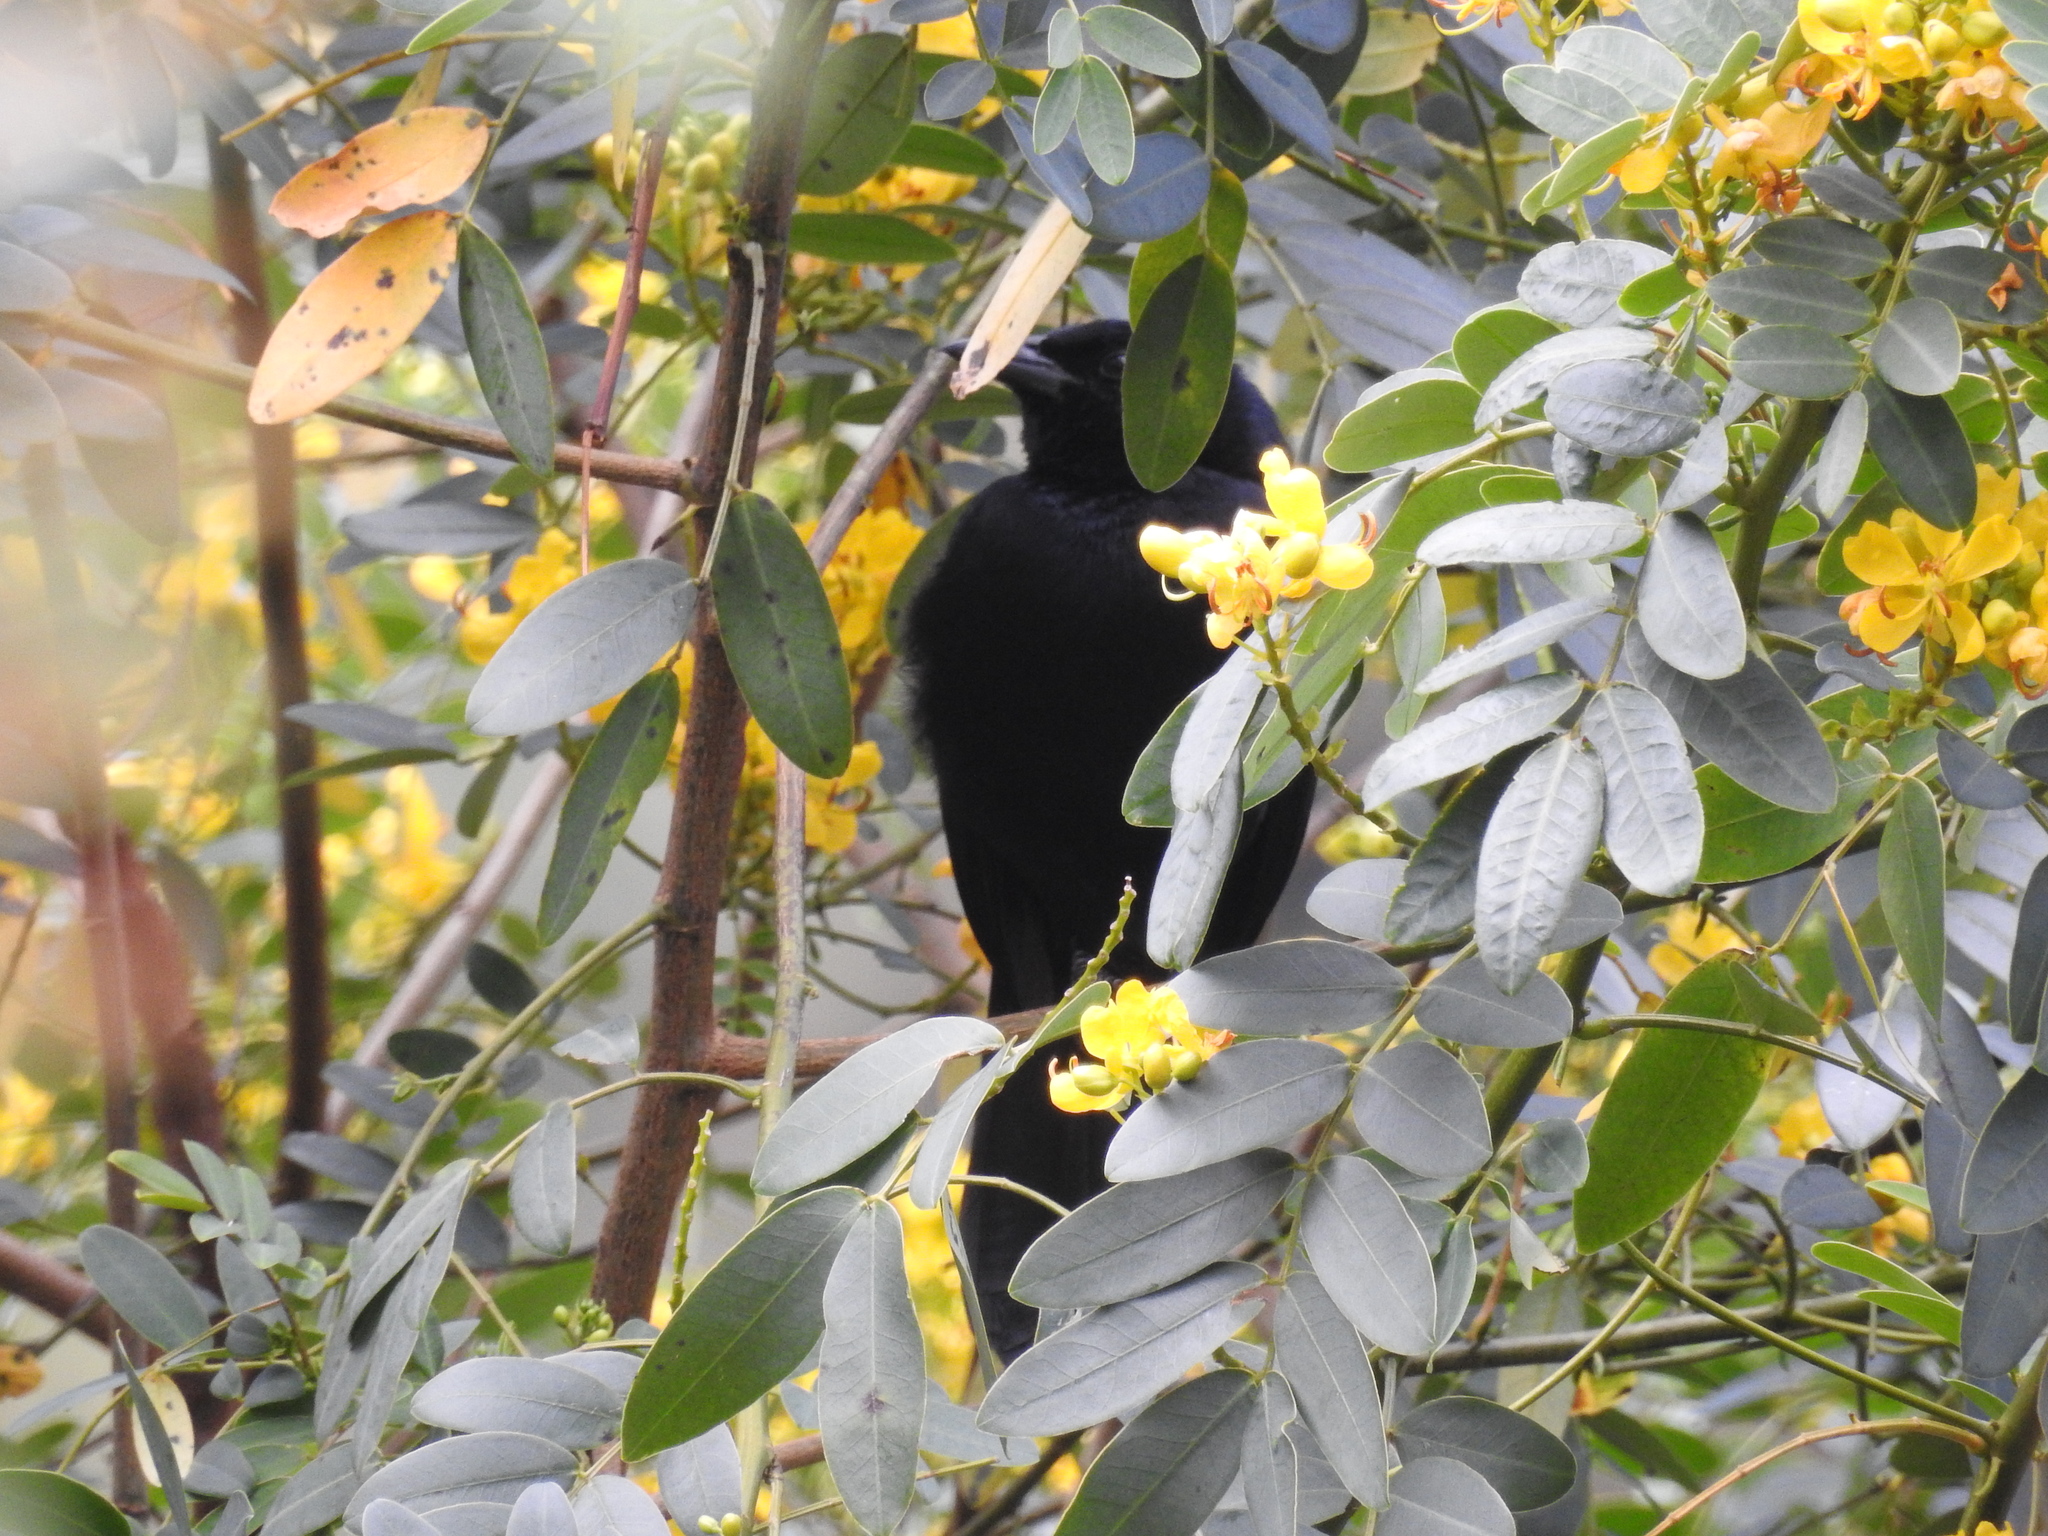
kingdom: Animalia
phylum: Chordata
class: Aves
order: Passeriformes
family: Icteridae
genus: Dives
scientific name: Dives dives
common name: Melodious blackbird
